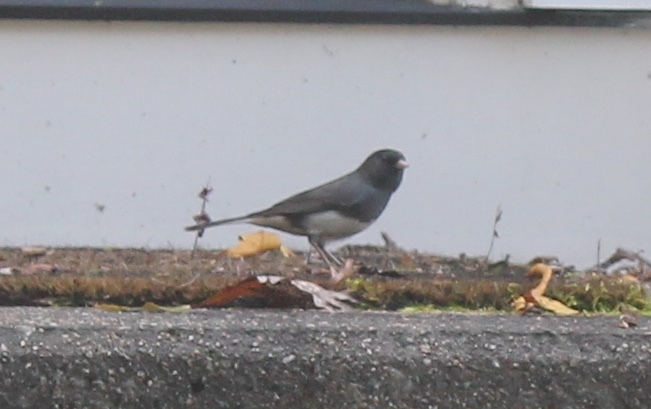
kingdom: Animalia
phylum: Chordata
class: Aves
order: Passeriformes
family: Passerellidae
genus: Junco
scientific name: Junco hyemalis
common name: Dark-eyed junco
